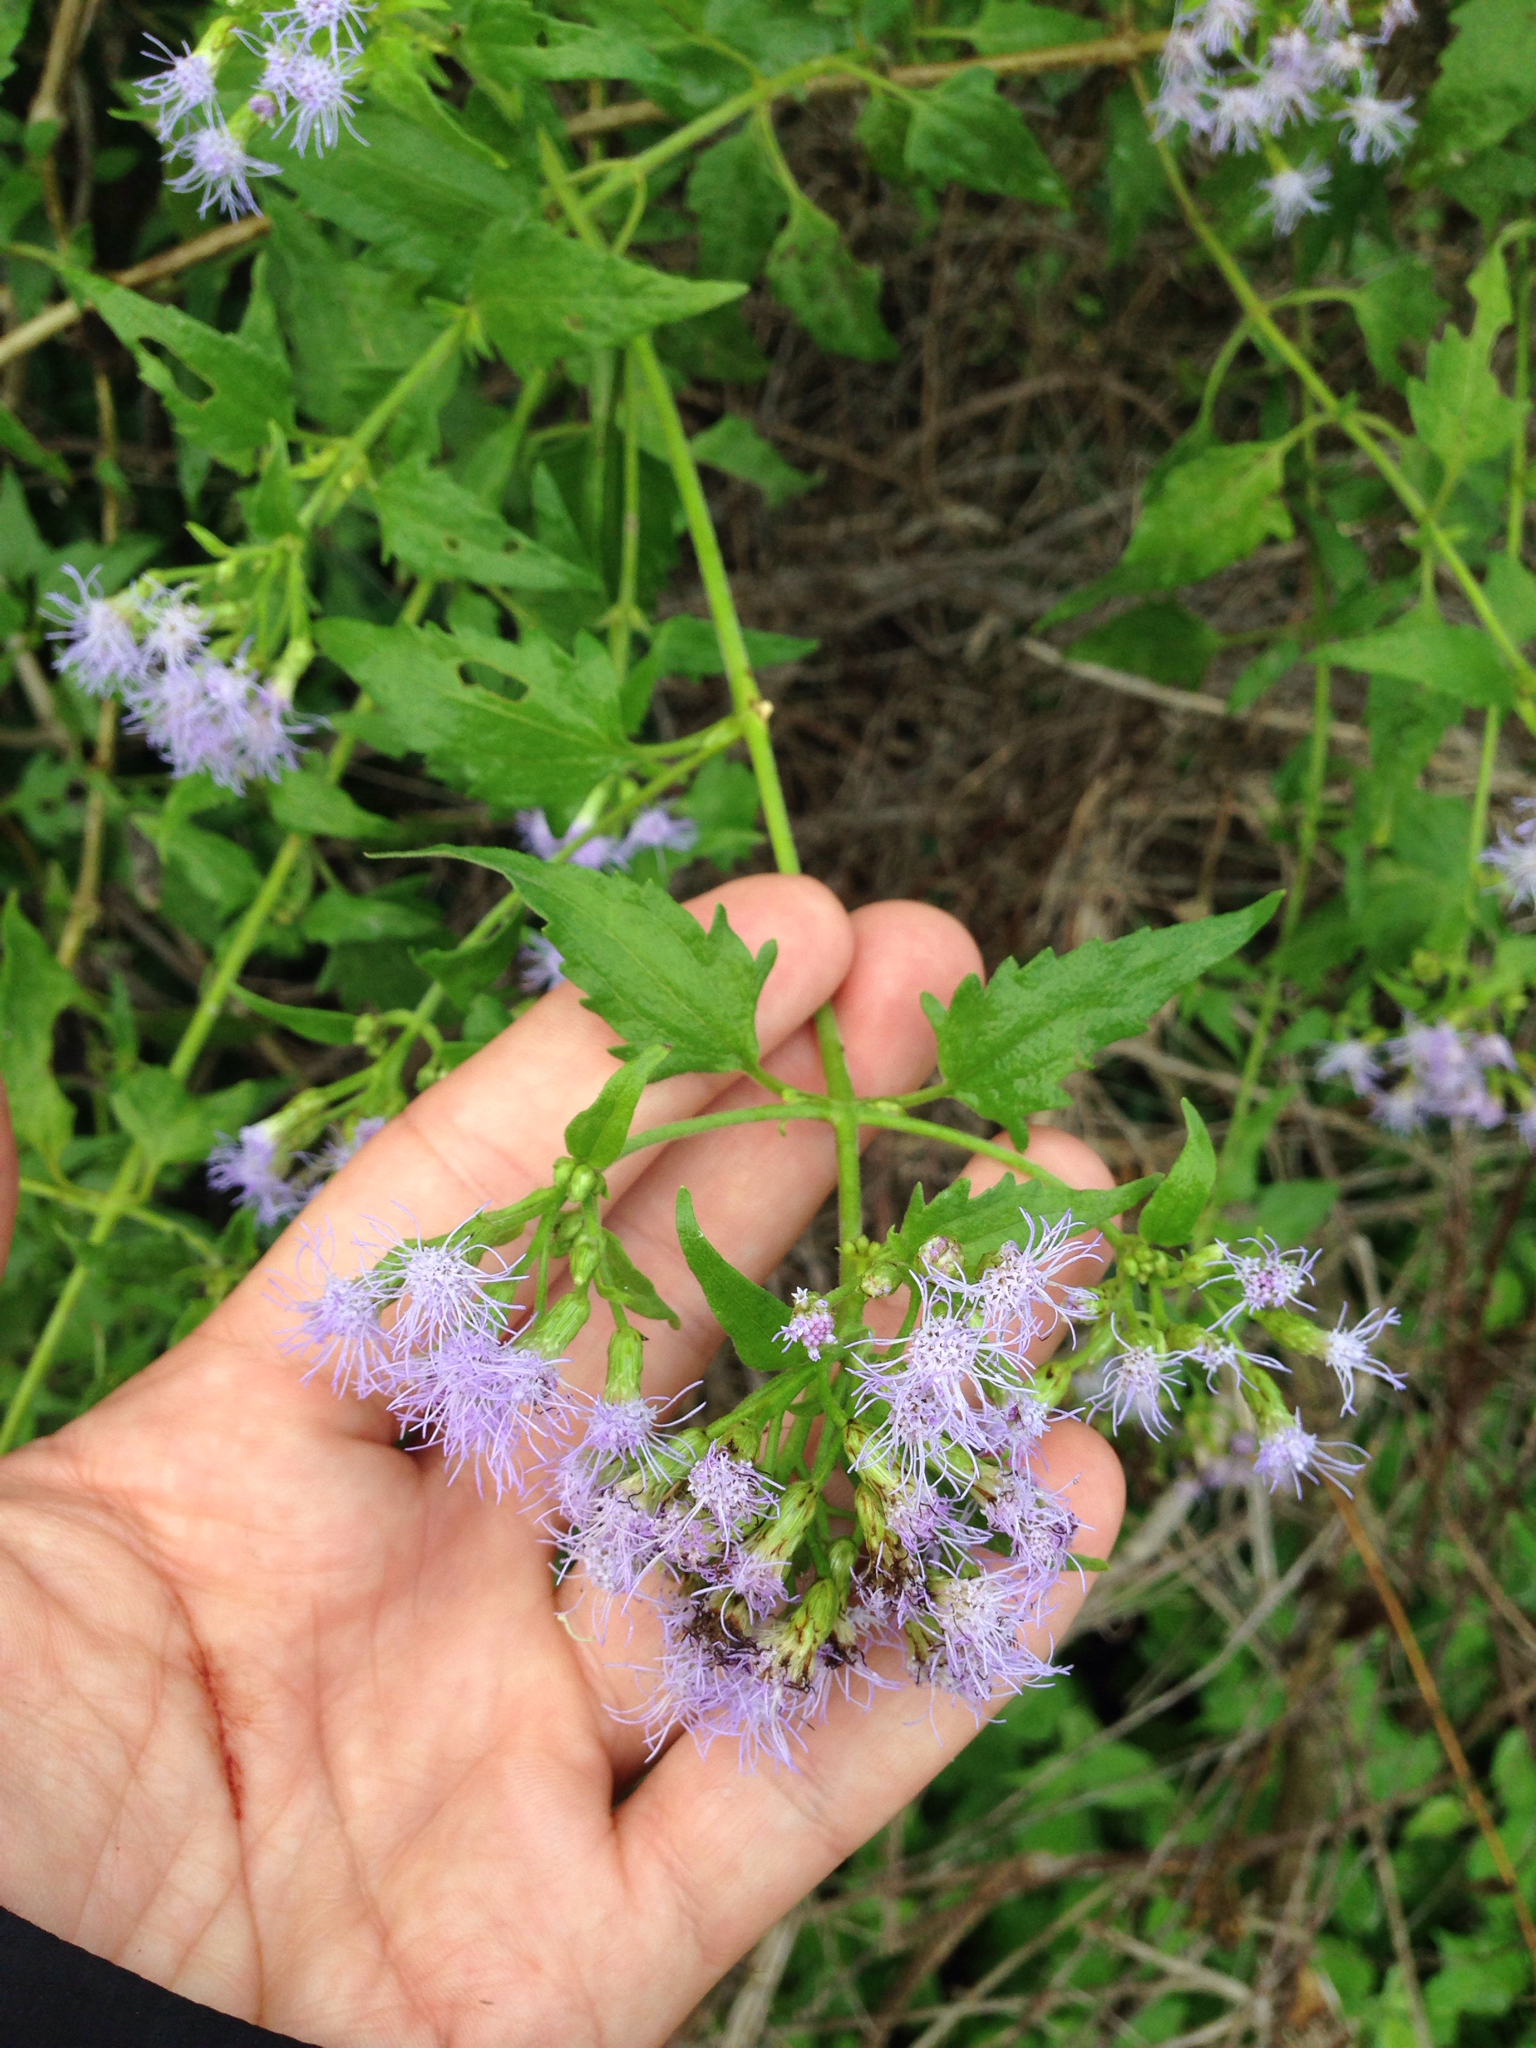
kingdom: Plantae
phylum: Tracheophyta
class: Magnoliopsida
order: Asterales
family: Asteraceae
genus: Chromolaena
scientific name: Chromolaena odorata
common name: Siamweed
